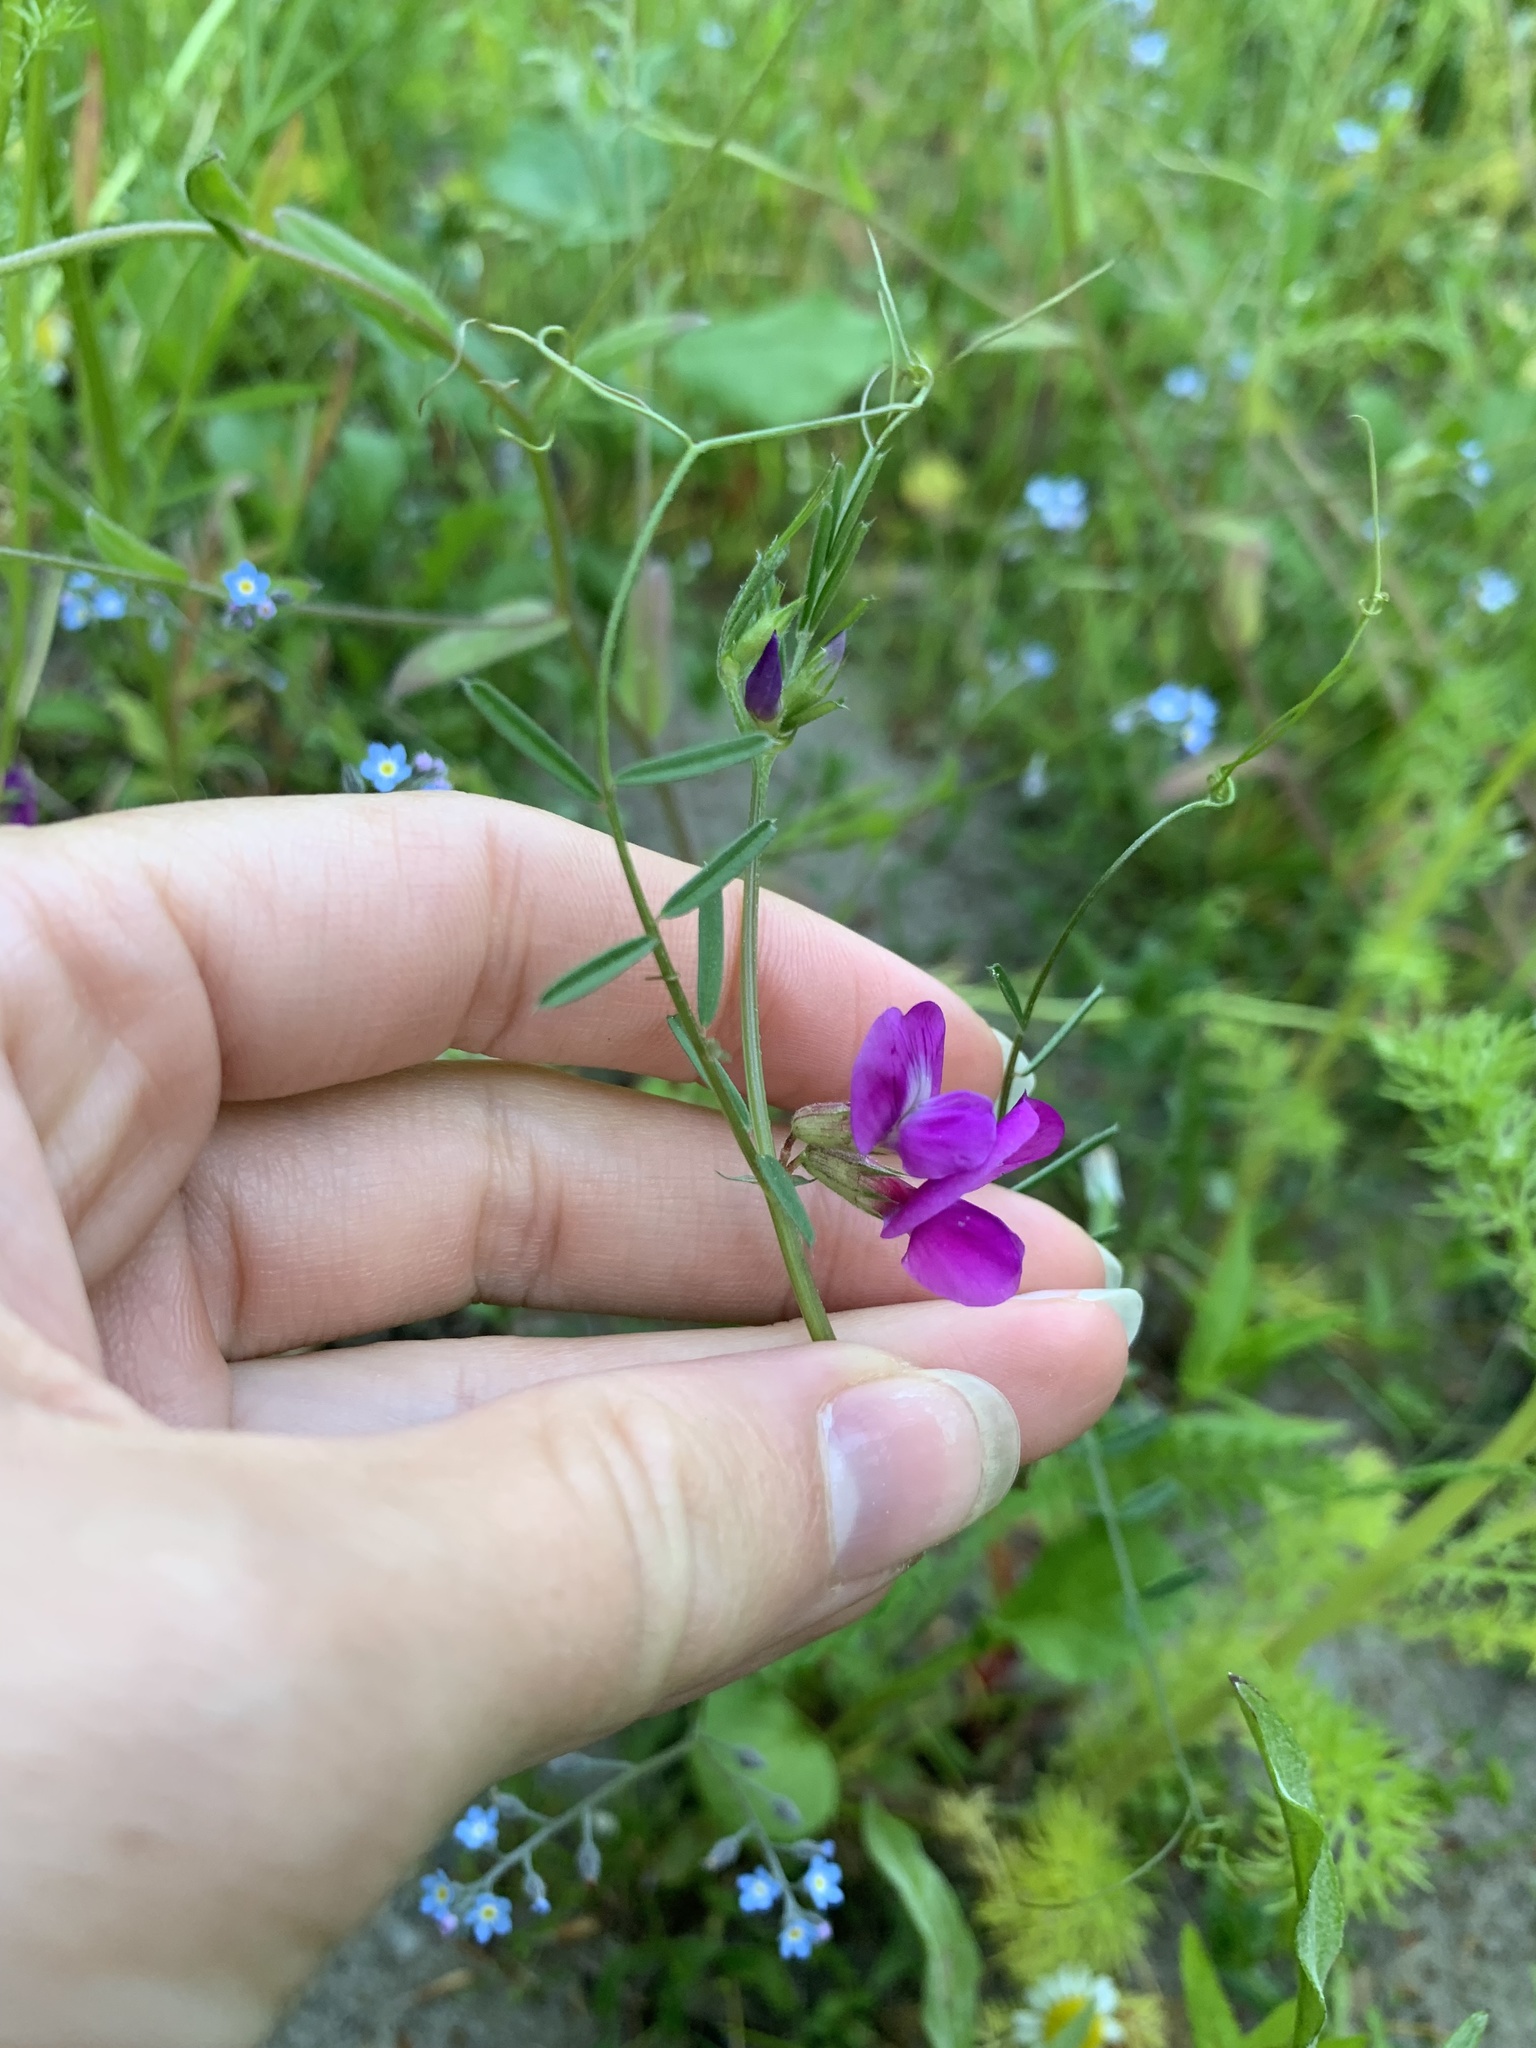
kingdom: Plantae
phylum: Tracheophyta
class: Magnoliopsida
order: Fabales
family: Fabaceae
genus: Vicia
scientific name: Vicia sativa
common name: Garden vetch
